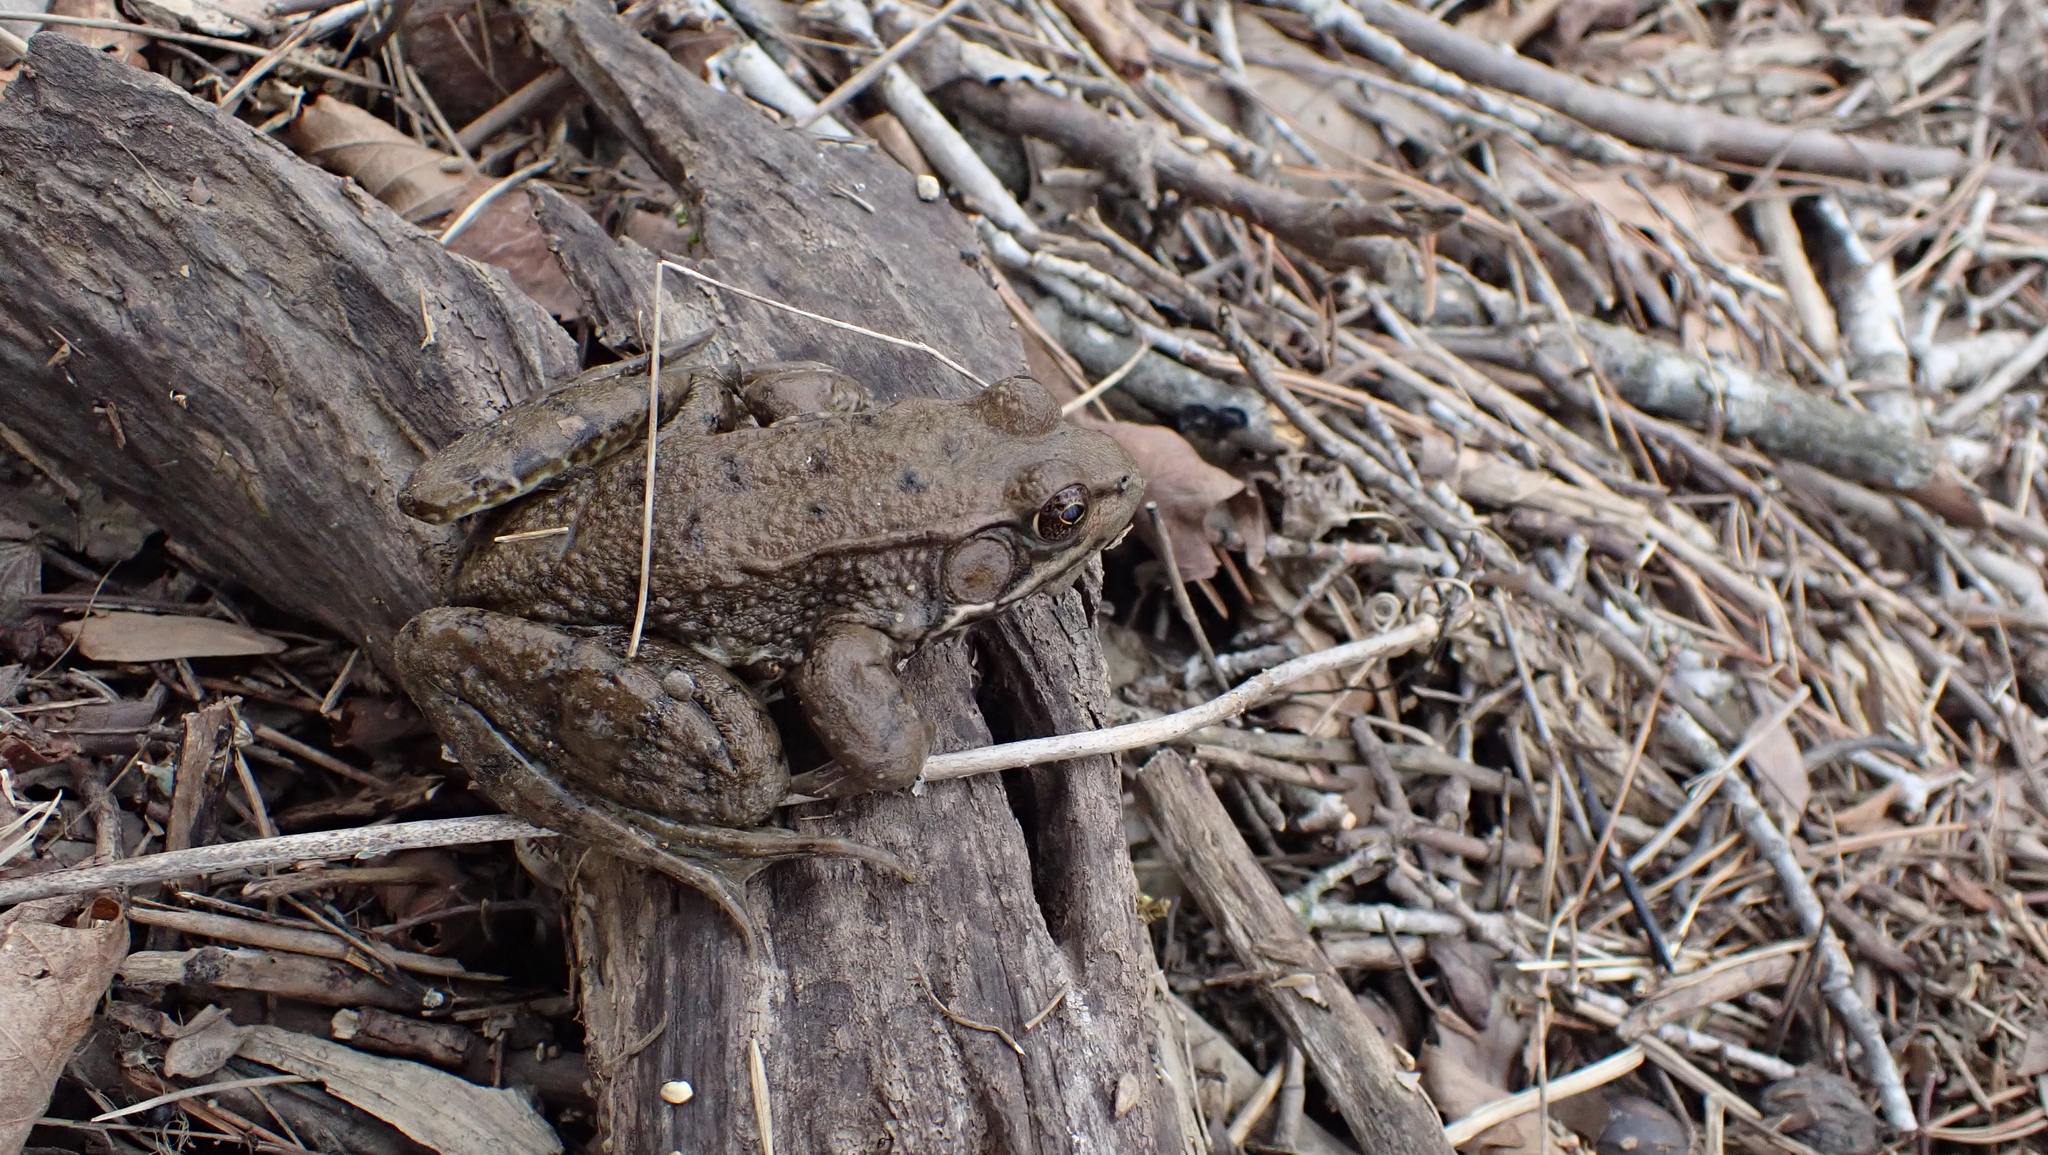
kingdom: Animalia
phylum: Chordata
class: Amphibia
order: Anura
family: Ranidae
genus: Lithobates
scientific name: Lithobates clamitans
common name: Green frog
